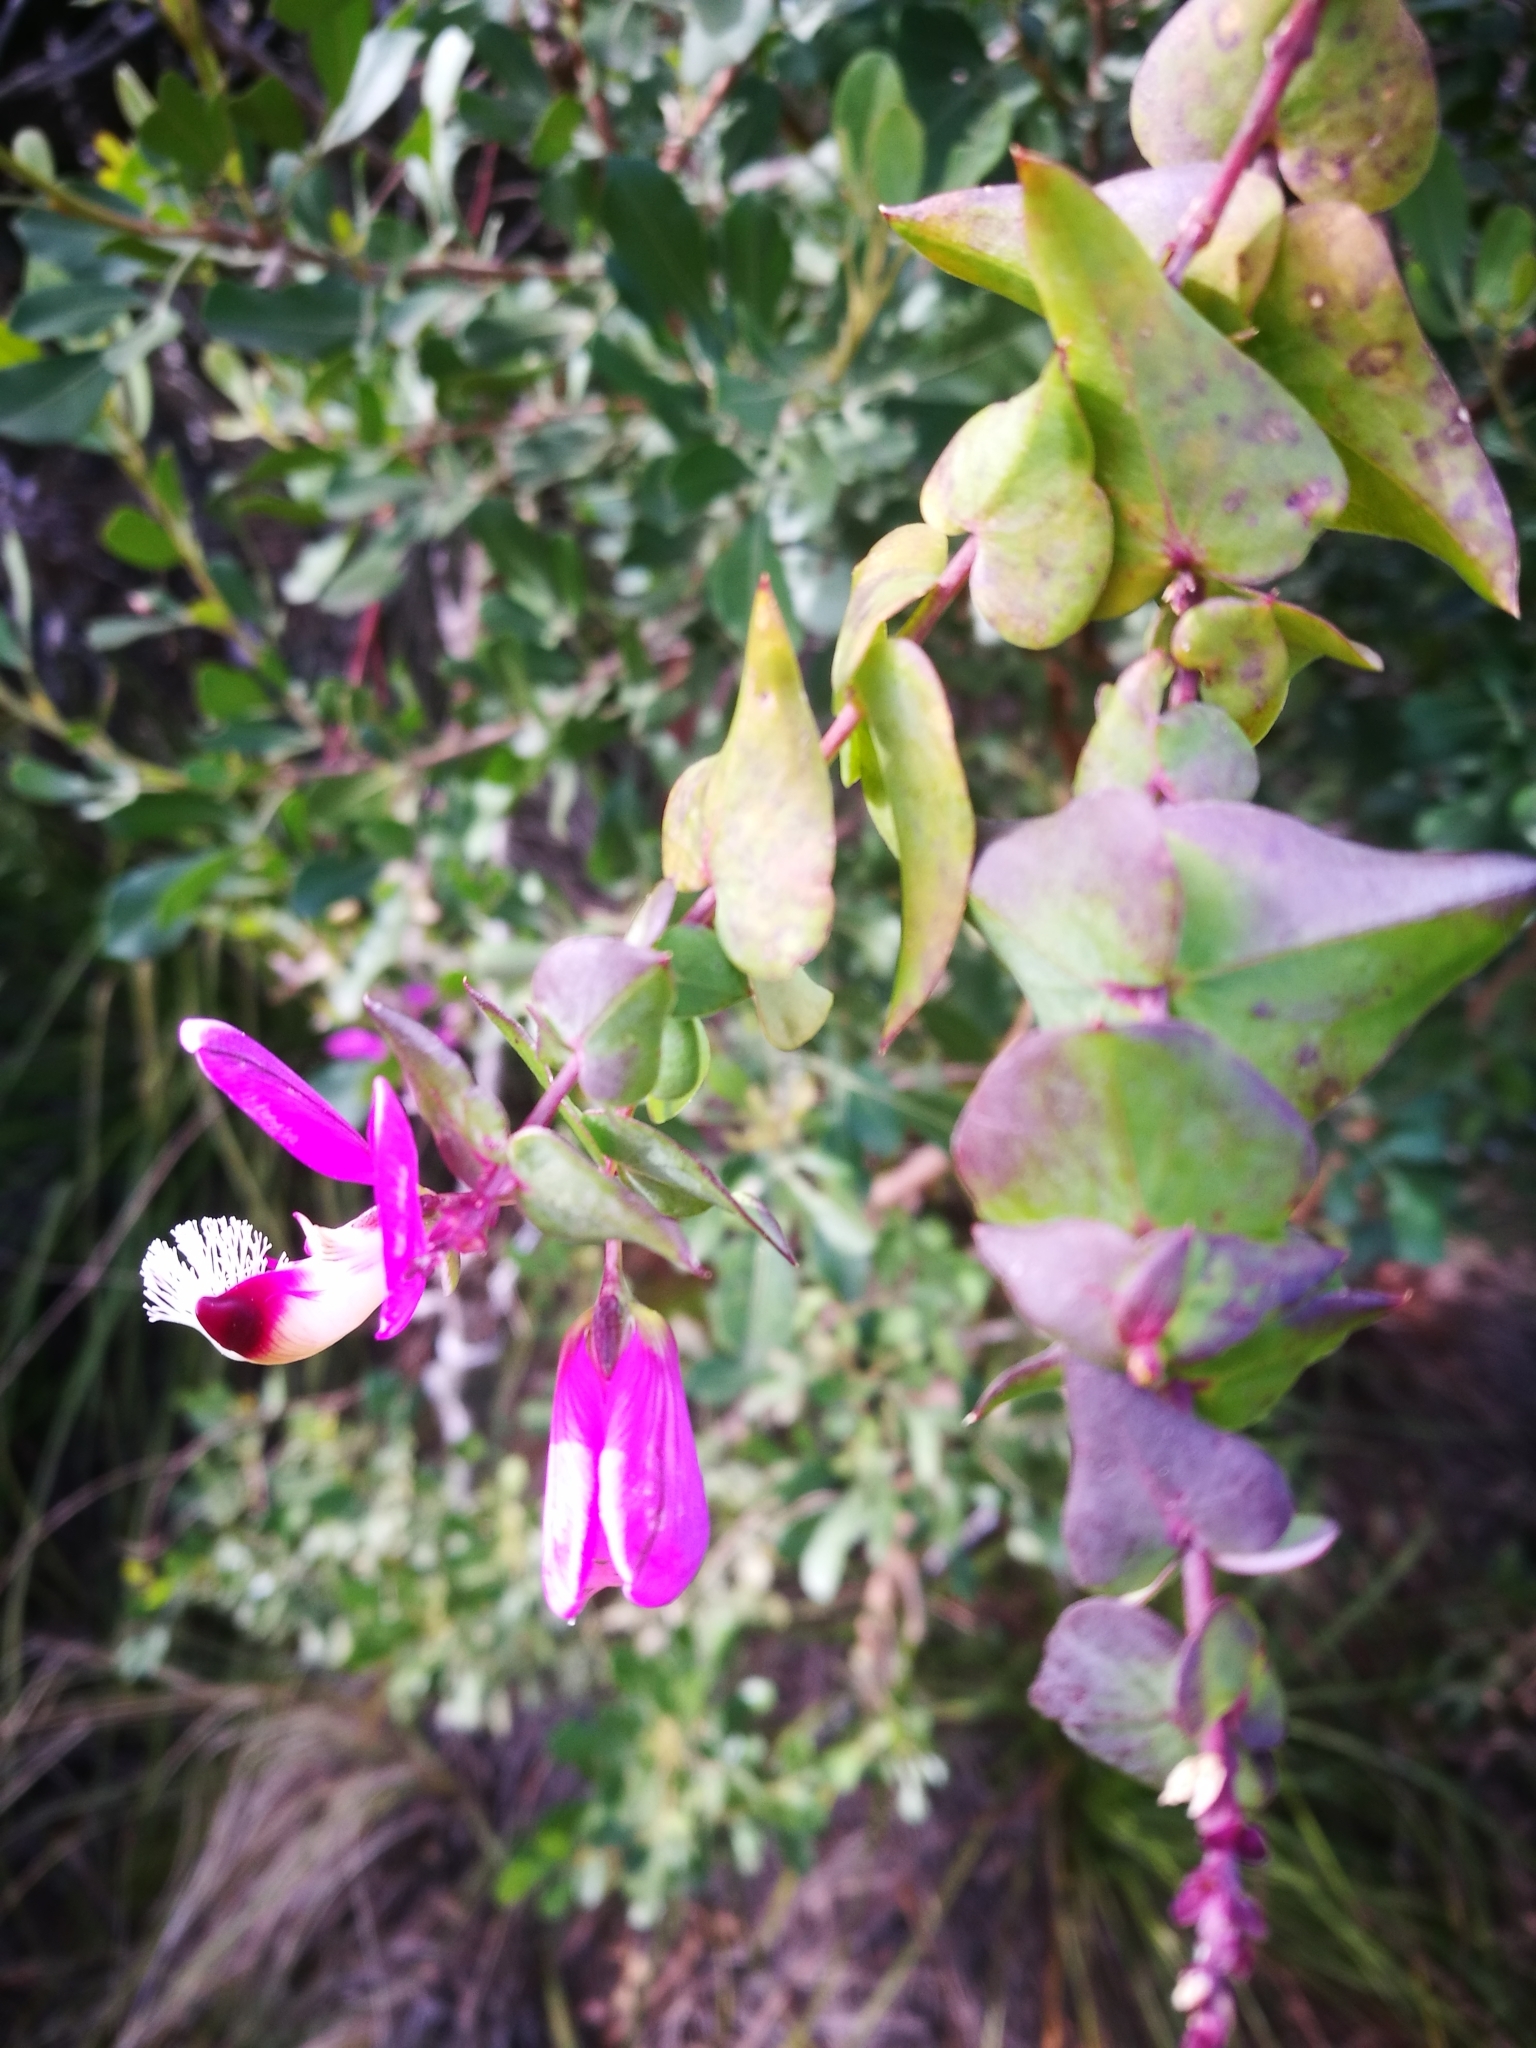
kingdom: Plantae
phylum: Tracheophyta
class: Magnoliopsida
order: Fabales
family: Polygalaceae
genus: Polygala
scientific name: Polygala fruticosa
